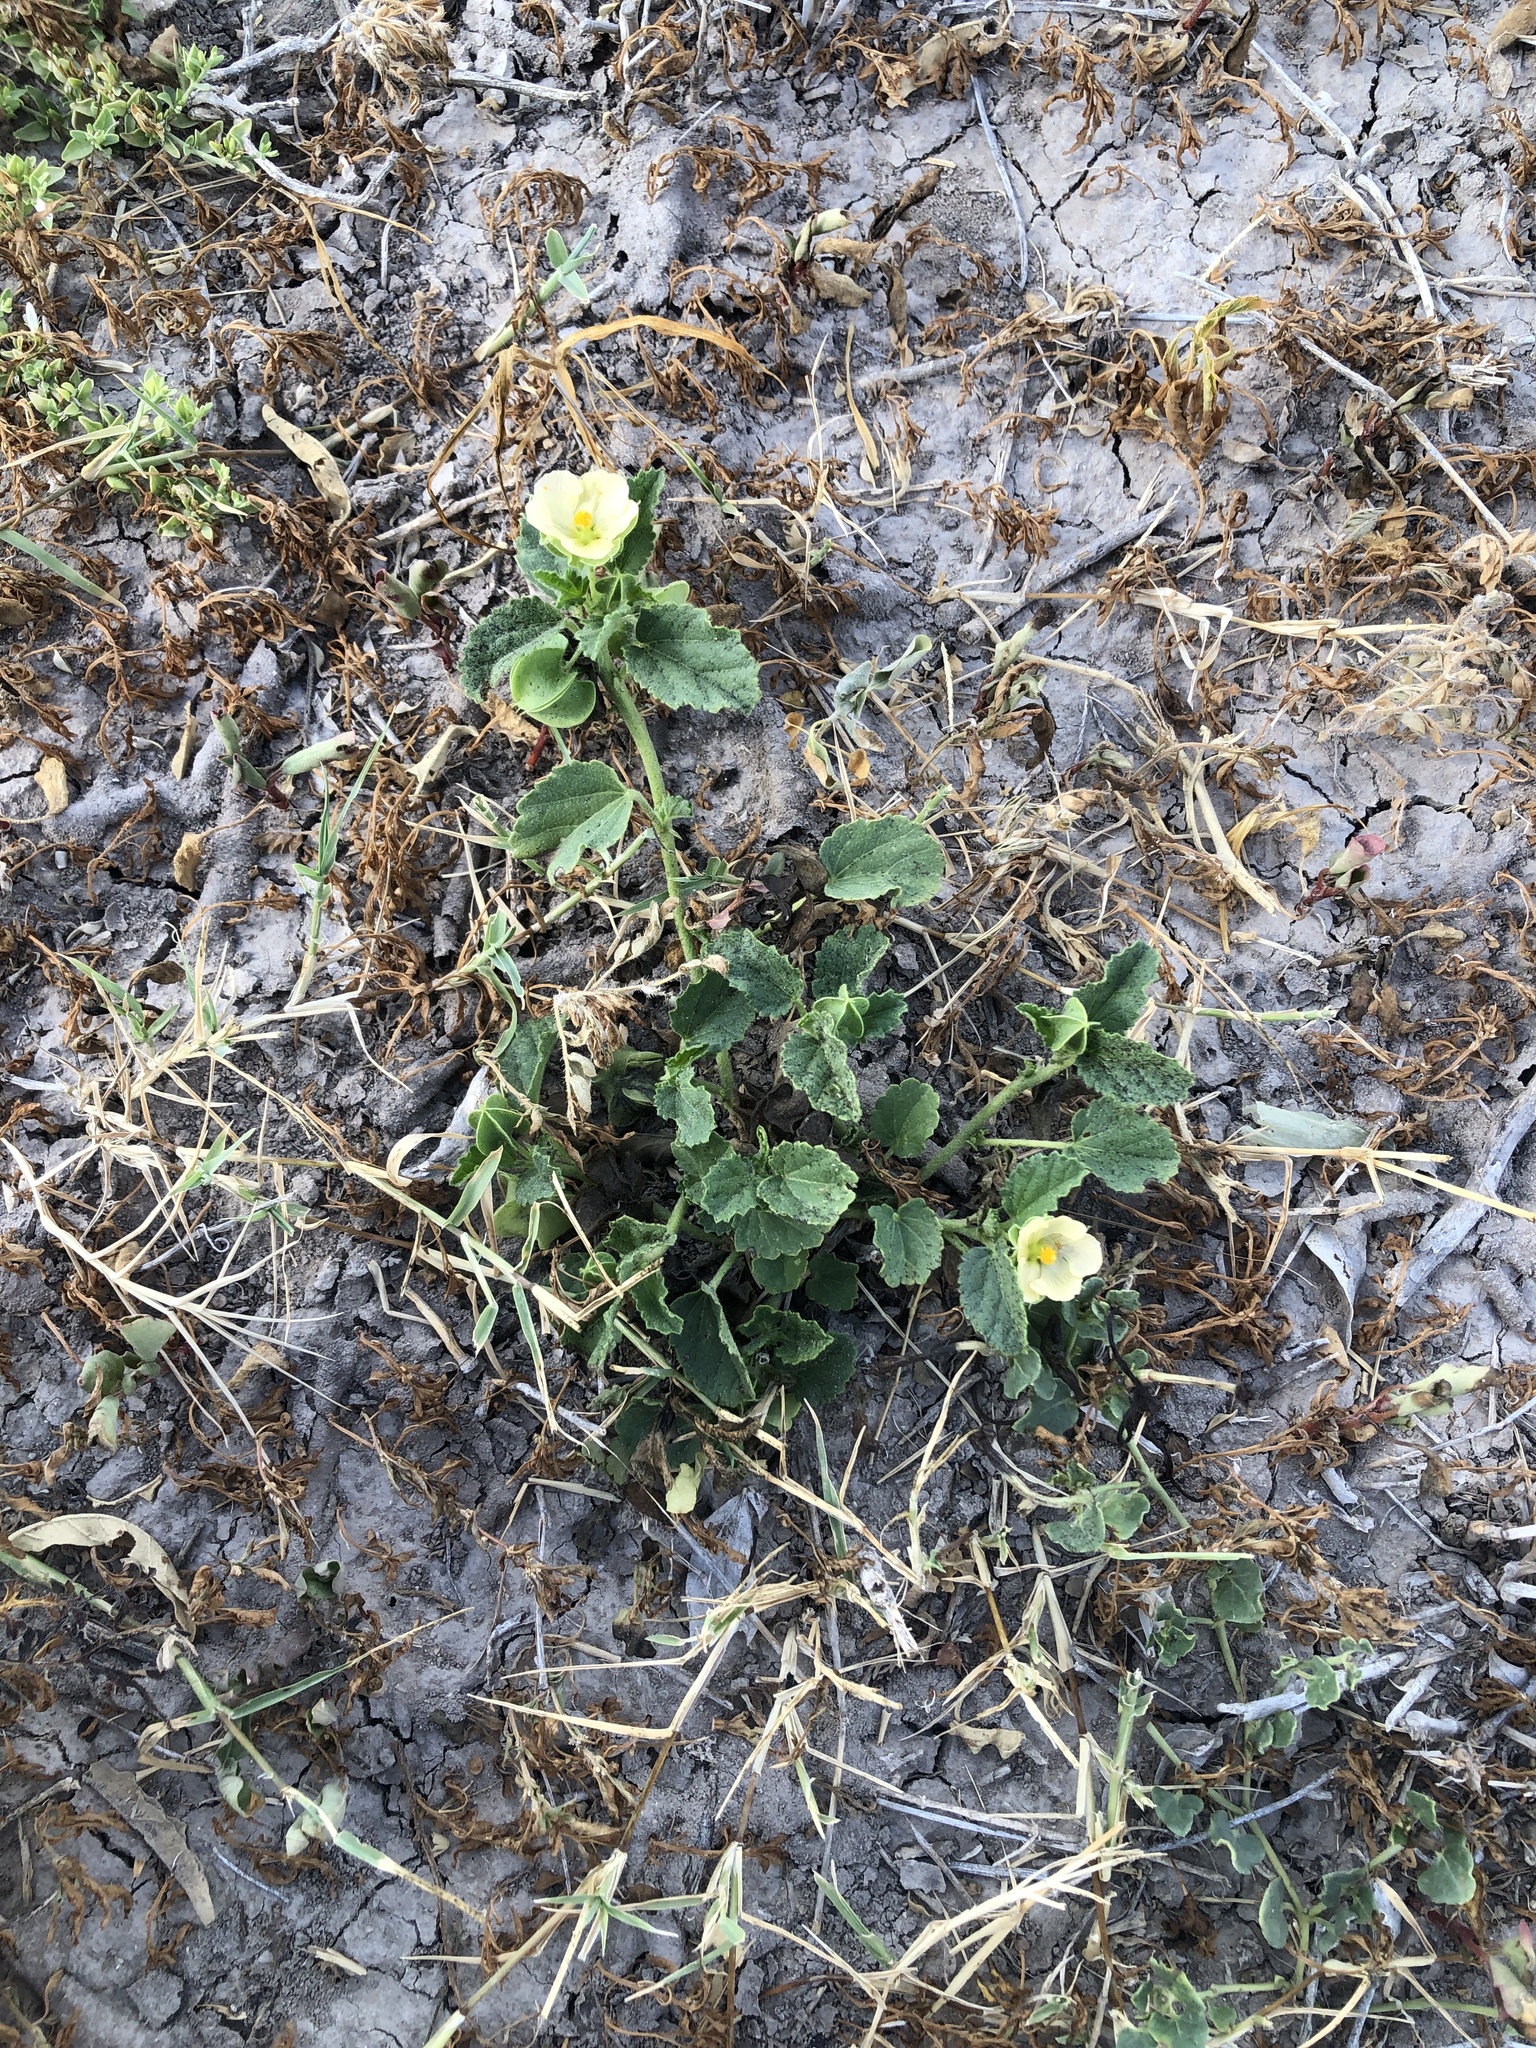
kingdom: Plantae
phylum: Tracheophyta
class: Magnoliopsida
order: Malvales
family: Malvaceae
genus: Rhynchosida
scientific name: Rhynchosida physocalyx
